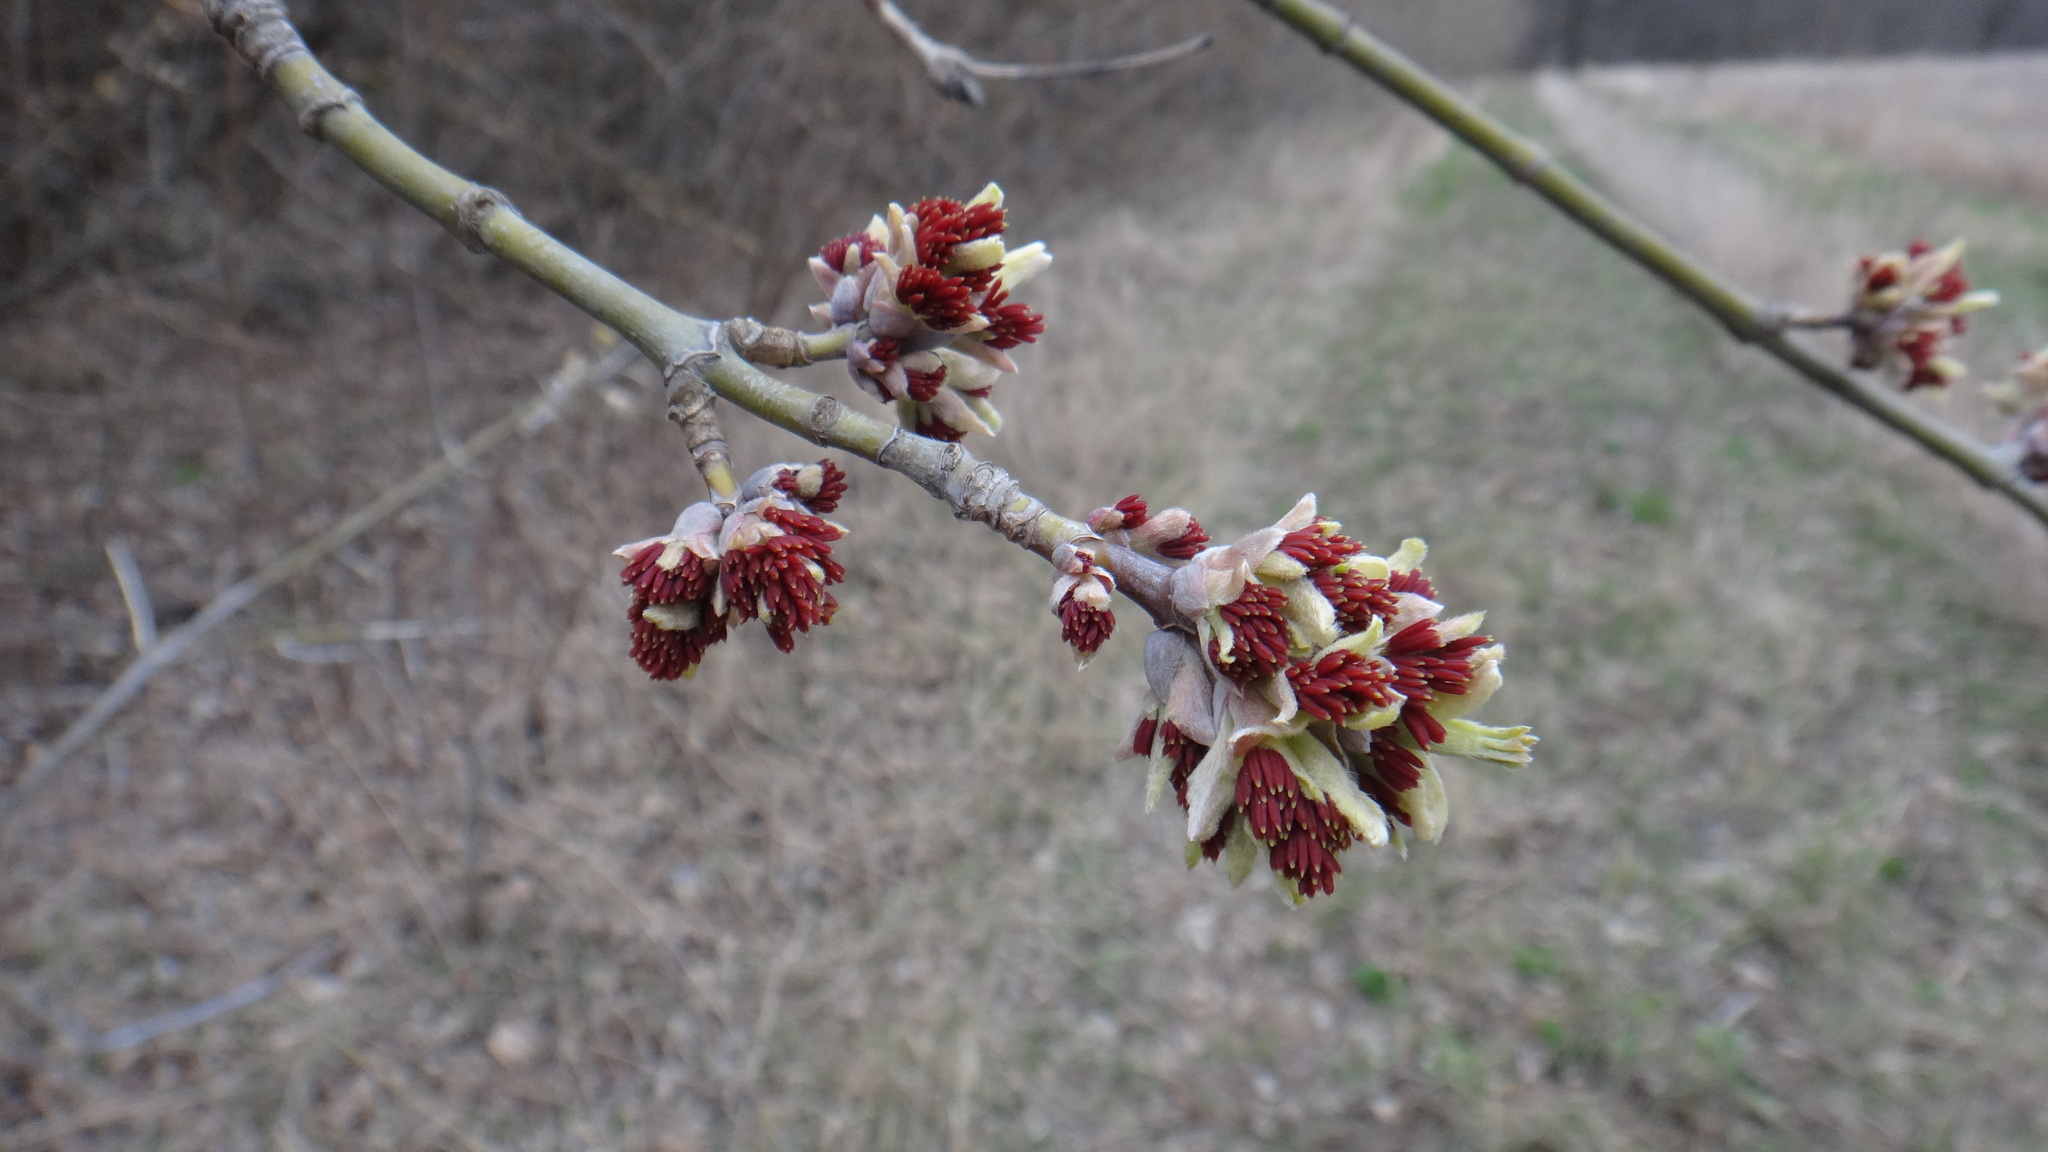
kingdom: Plantae
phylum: Tracheophyta
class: Magnoliopsida
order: Sapindales
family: Sapindaceae
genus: Acer
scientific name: Acer negundo
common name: Ashleaf maple
